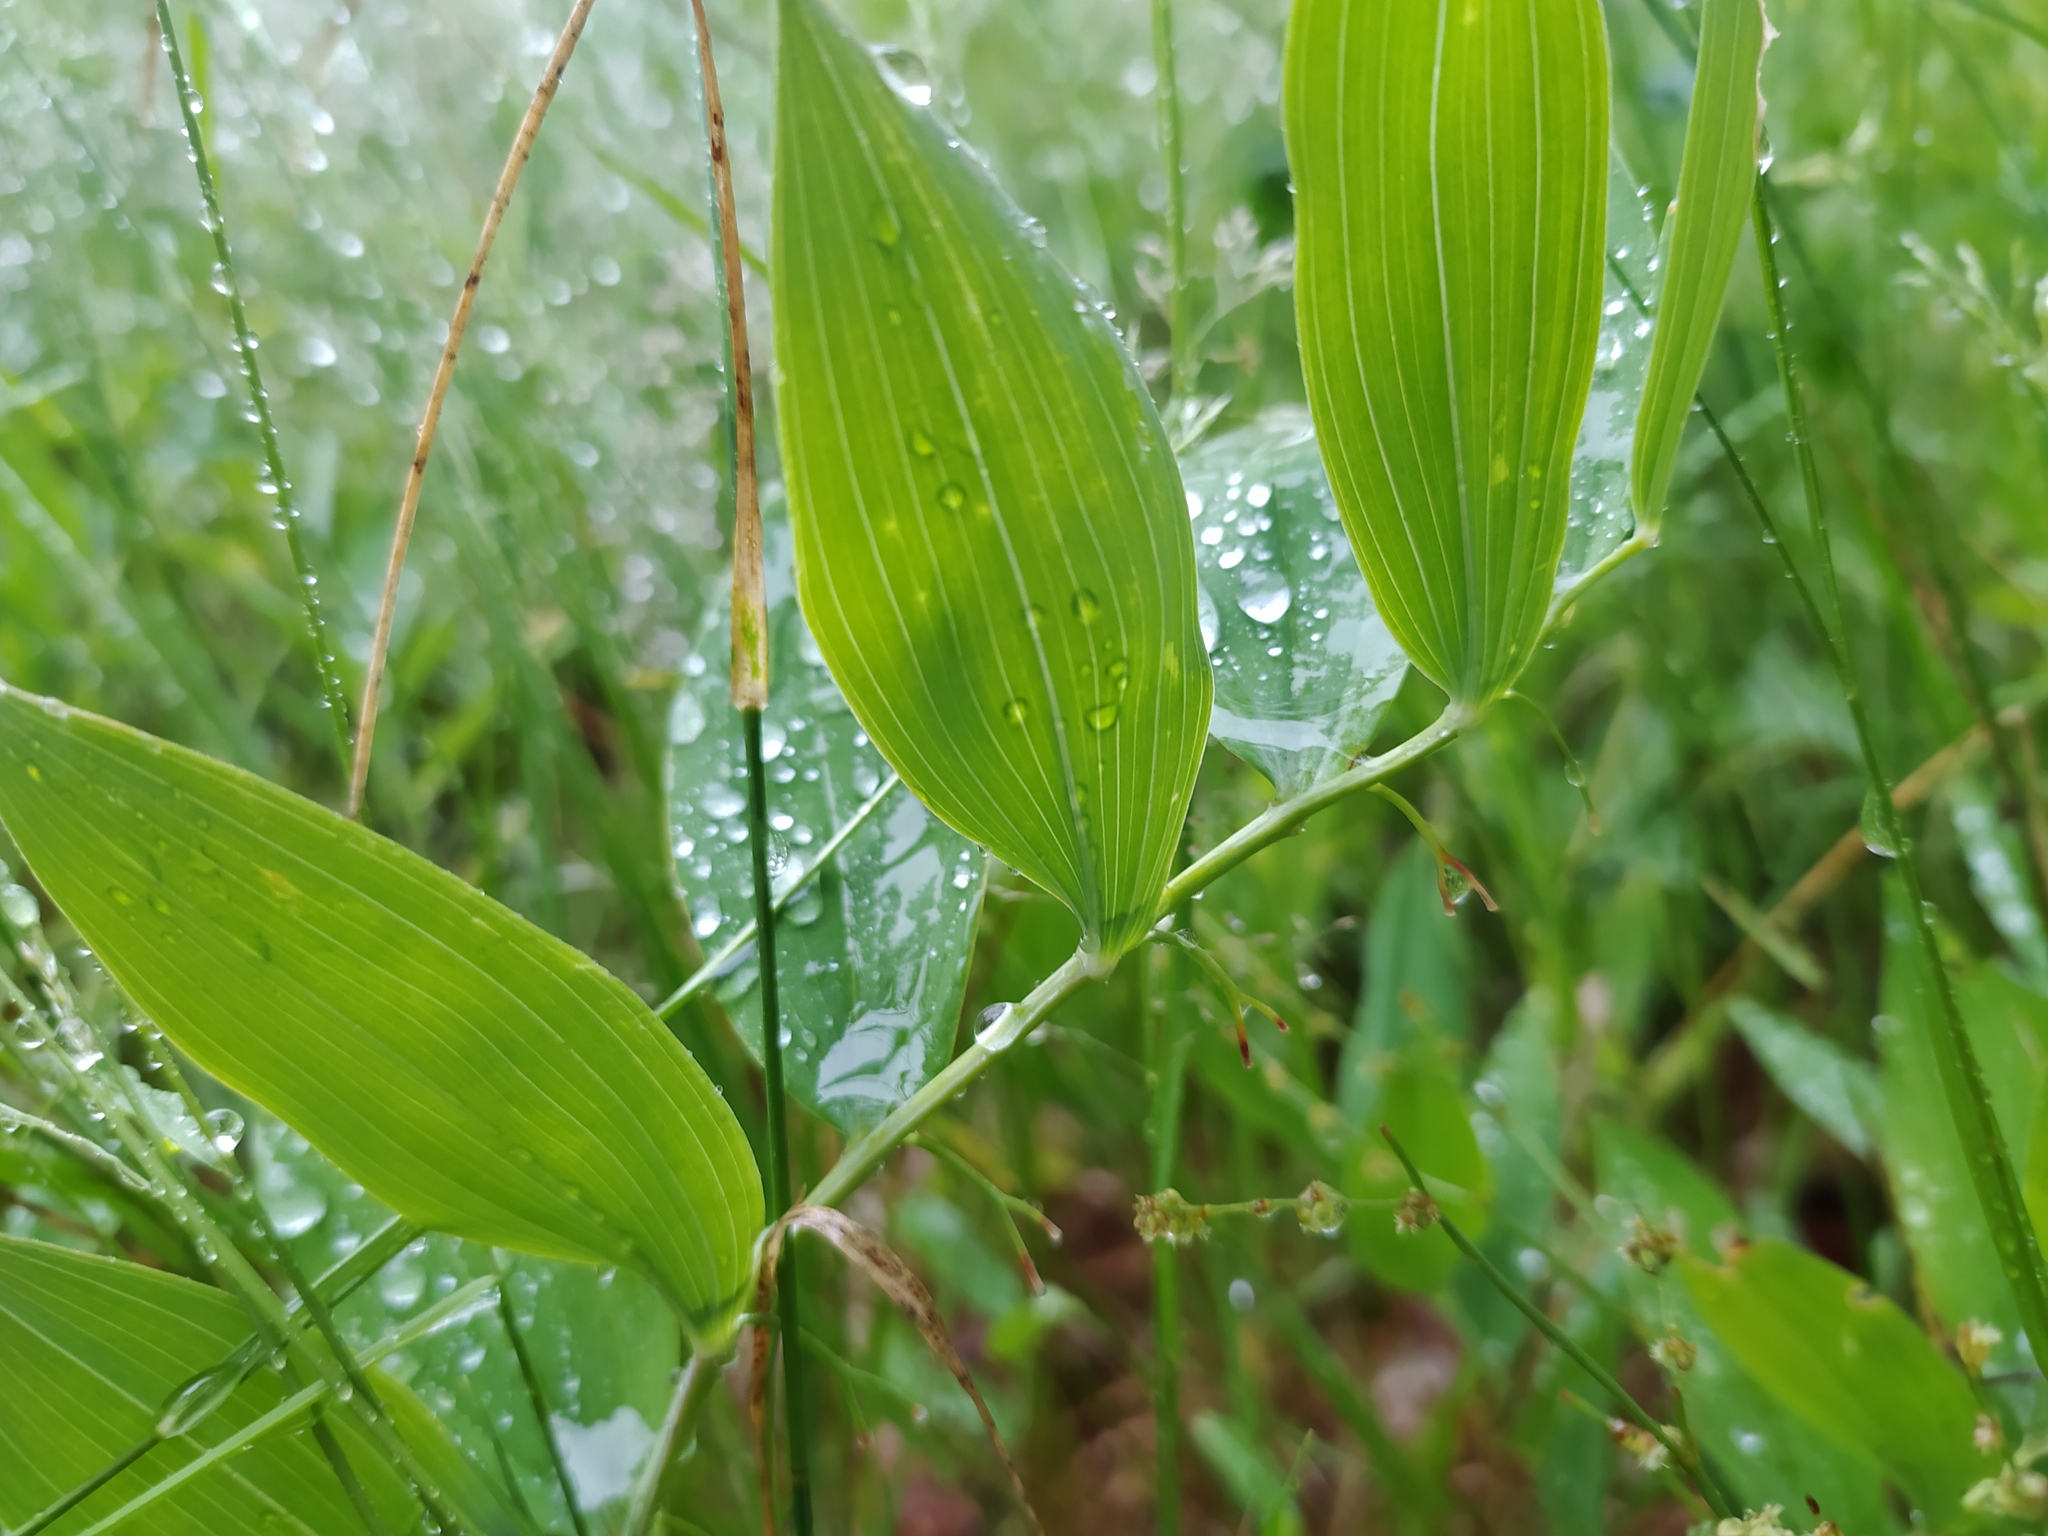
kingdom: Plantae
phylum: Tracheophyta
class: Liliopsida
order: Asparagales
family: Asparagaceae
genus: Polygonatum
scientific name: Polygonatum odoratum
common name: Angular solomon's-seal
